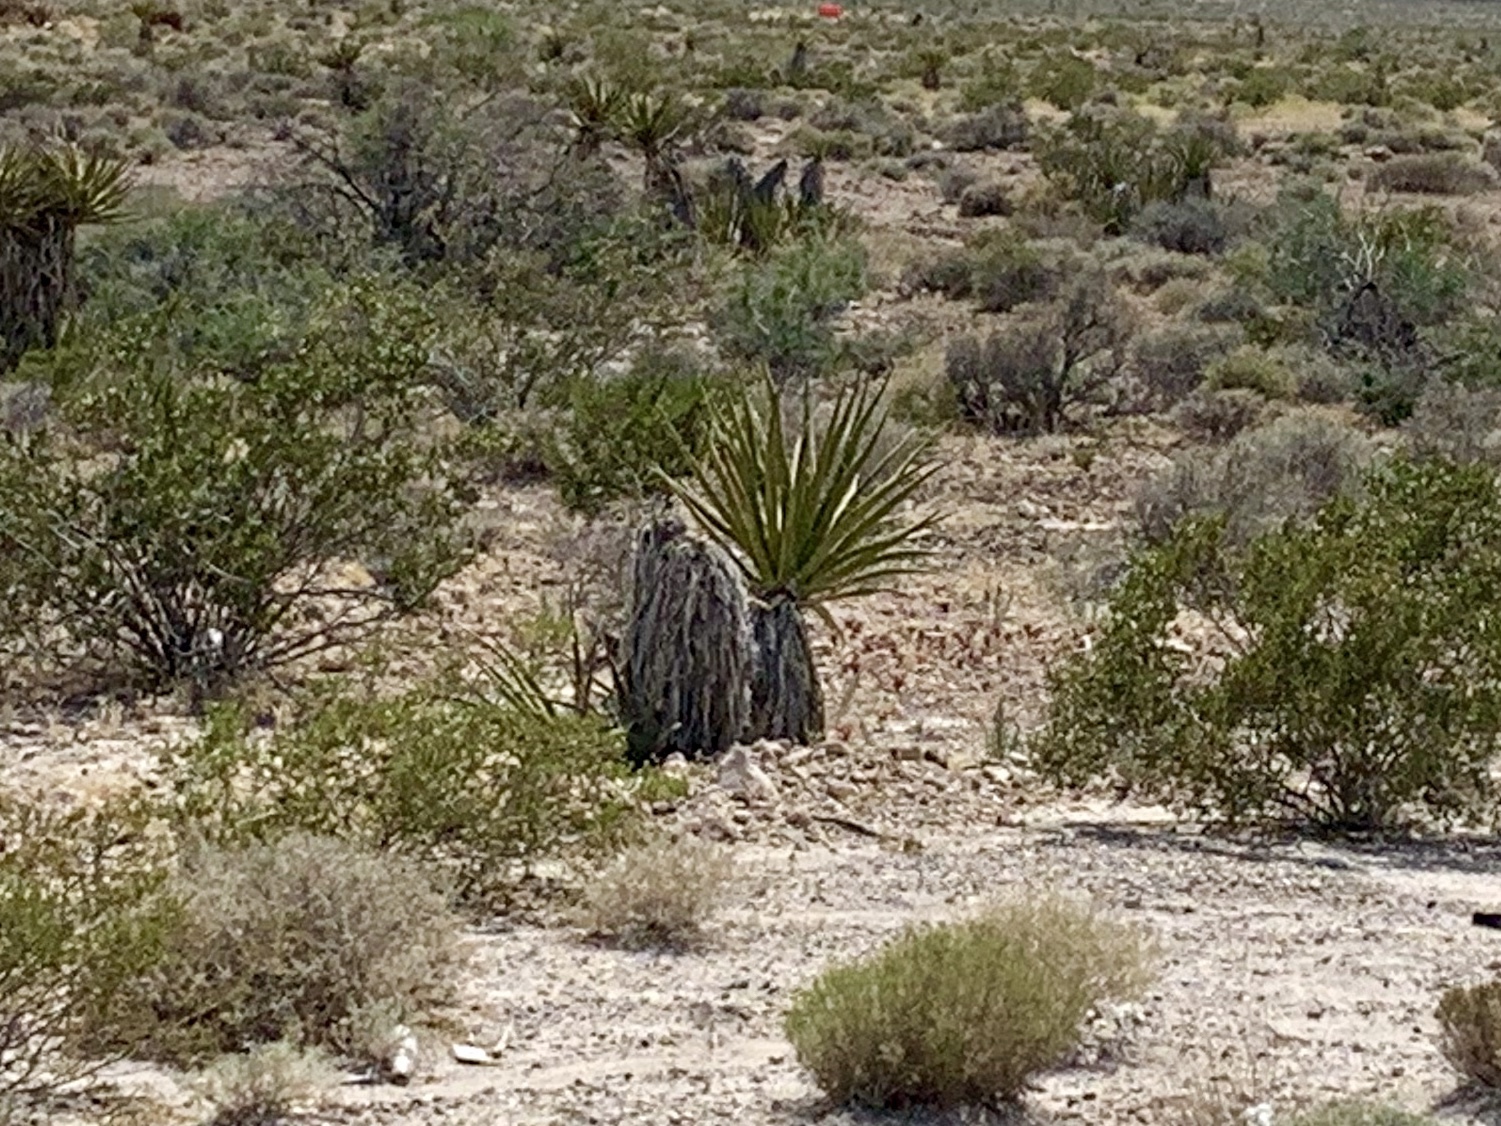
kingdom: Plantae
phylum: Tracheophyta
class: Liliopsida
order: Asparagales
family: Asparagaceae
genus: Yucca
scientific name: Yucca schidigera
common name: Mojave yucca
